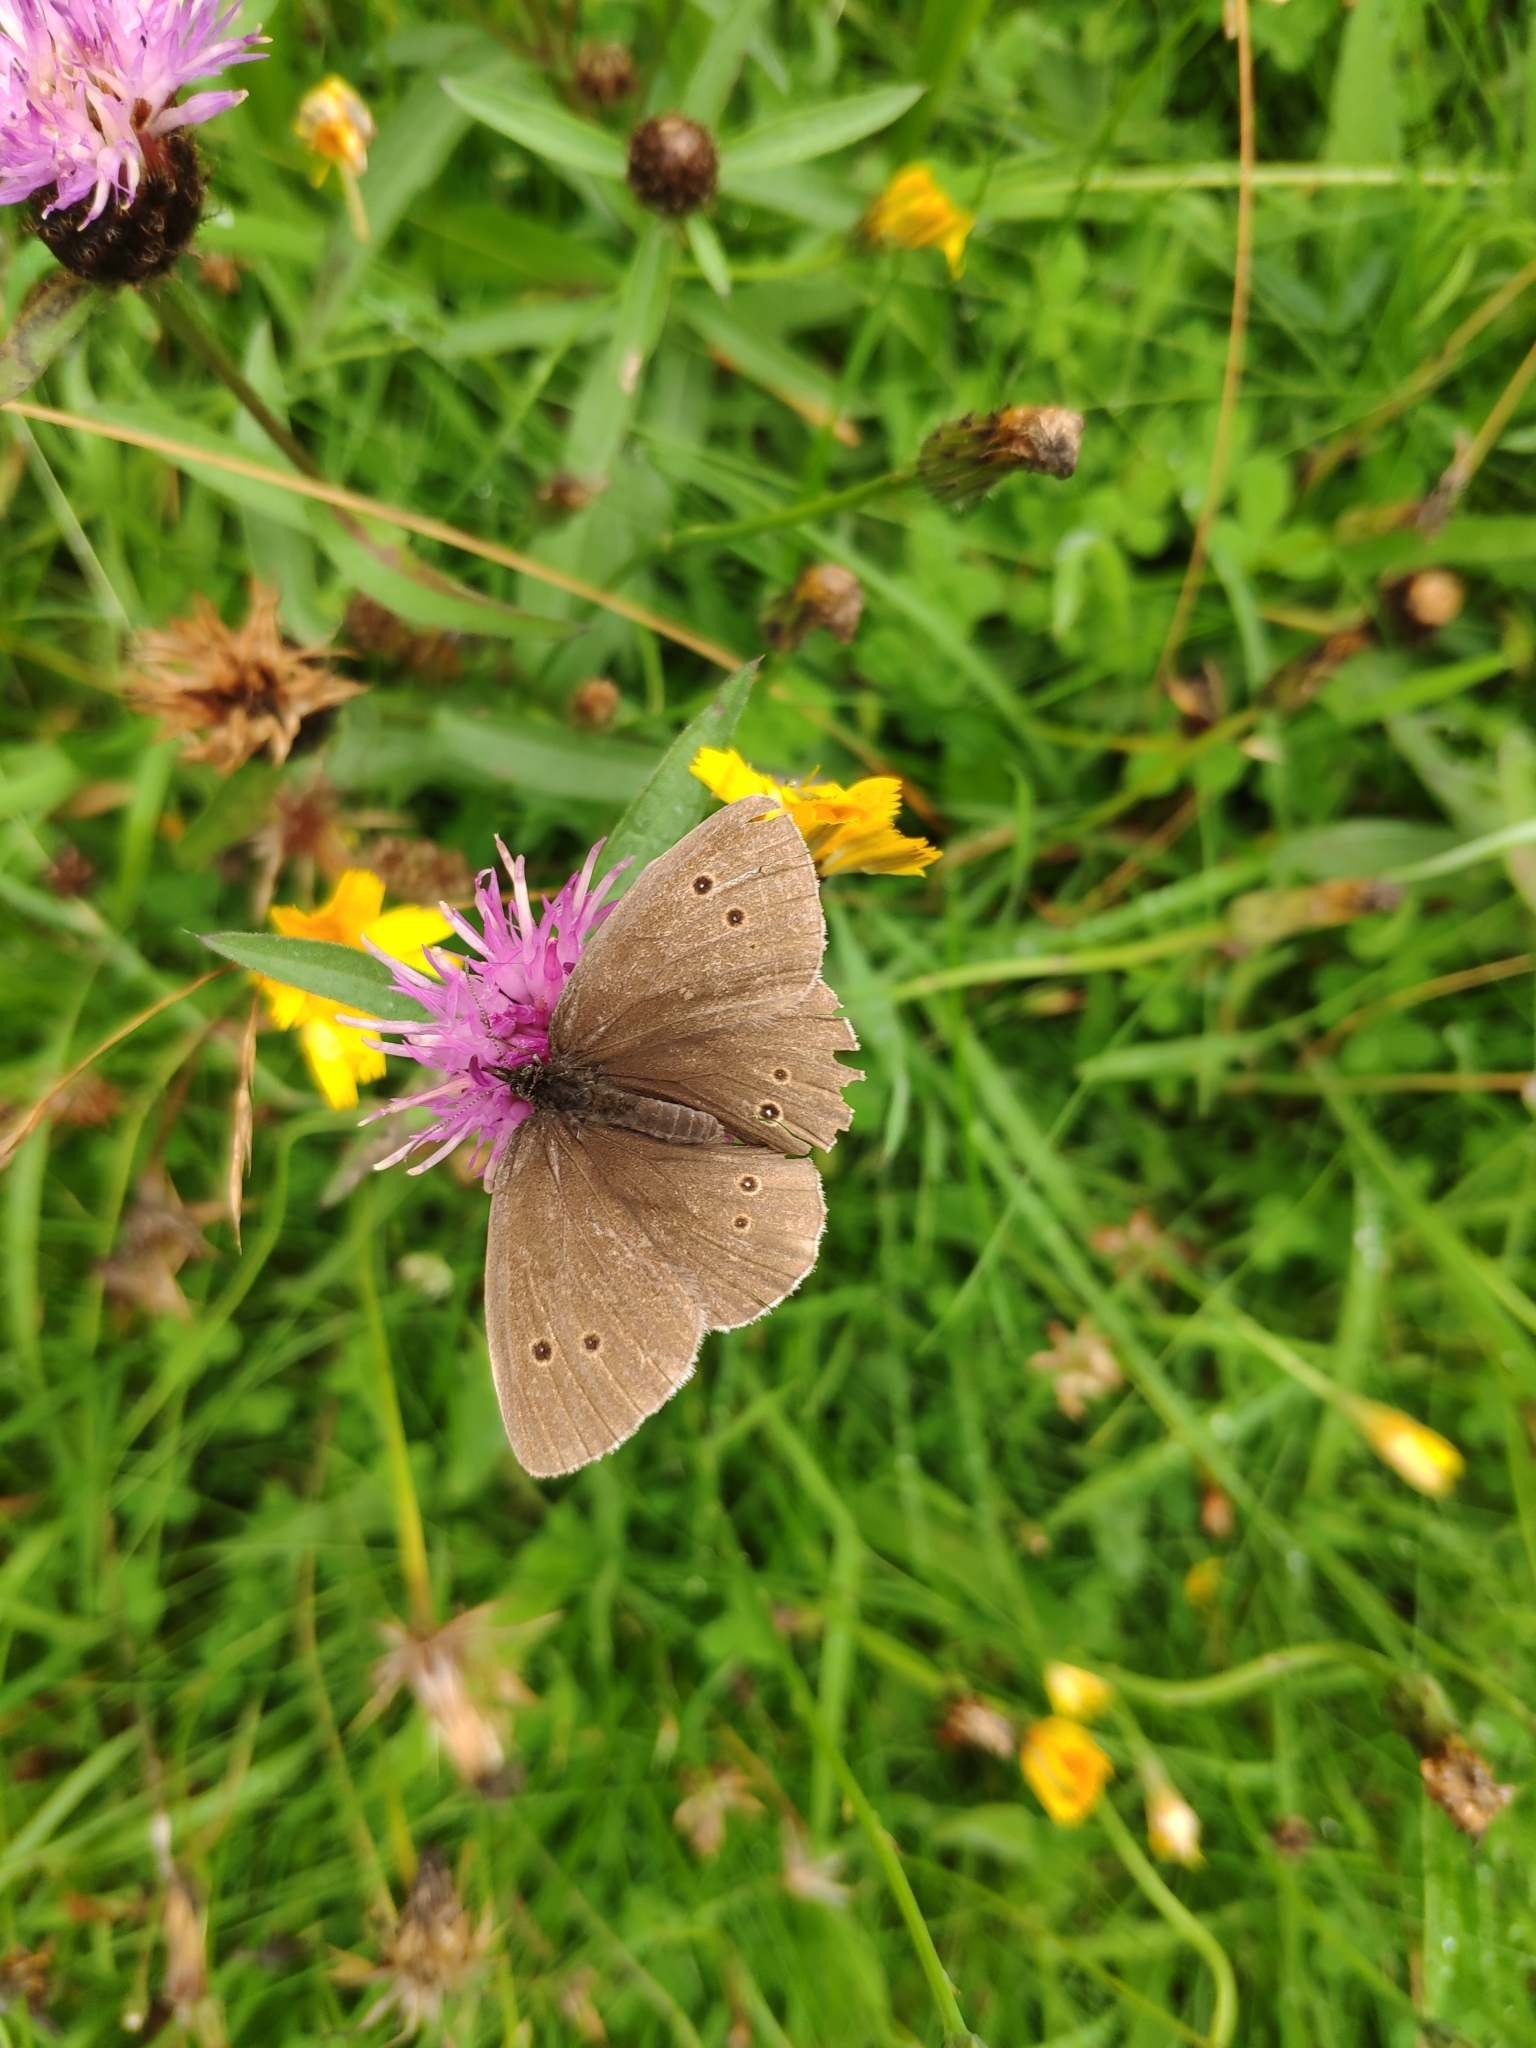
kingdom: Animalia
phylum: Arthropoda
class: Insecta
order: Lepidoptera
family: Nymphalidae
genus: Aphantopus
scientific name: Aphantopus hyperantus
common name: Ringlet
